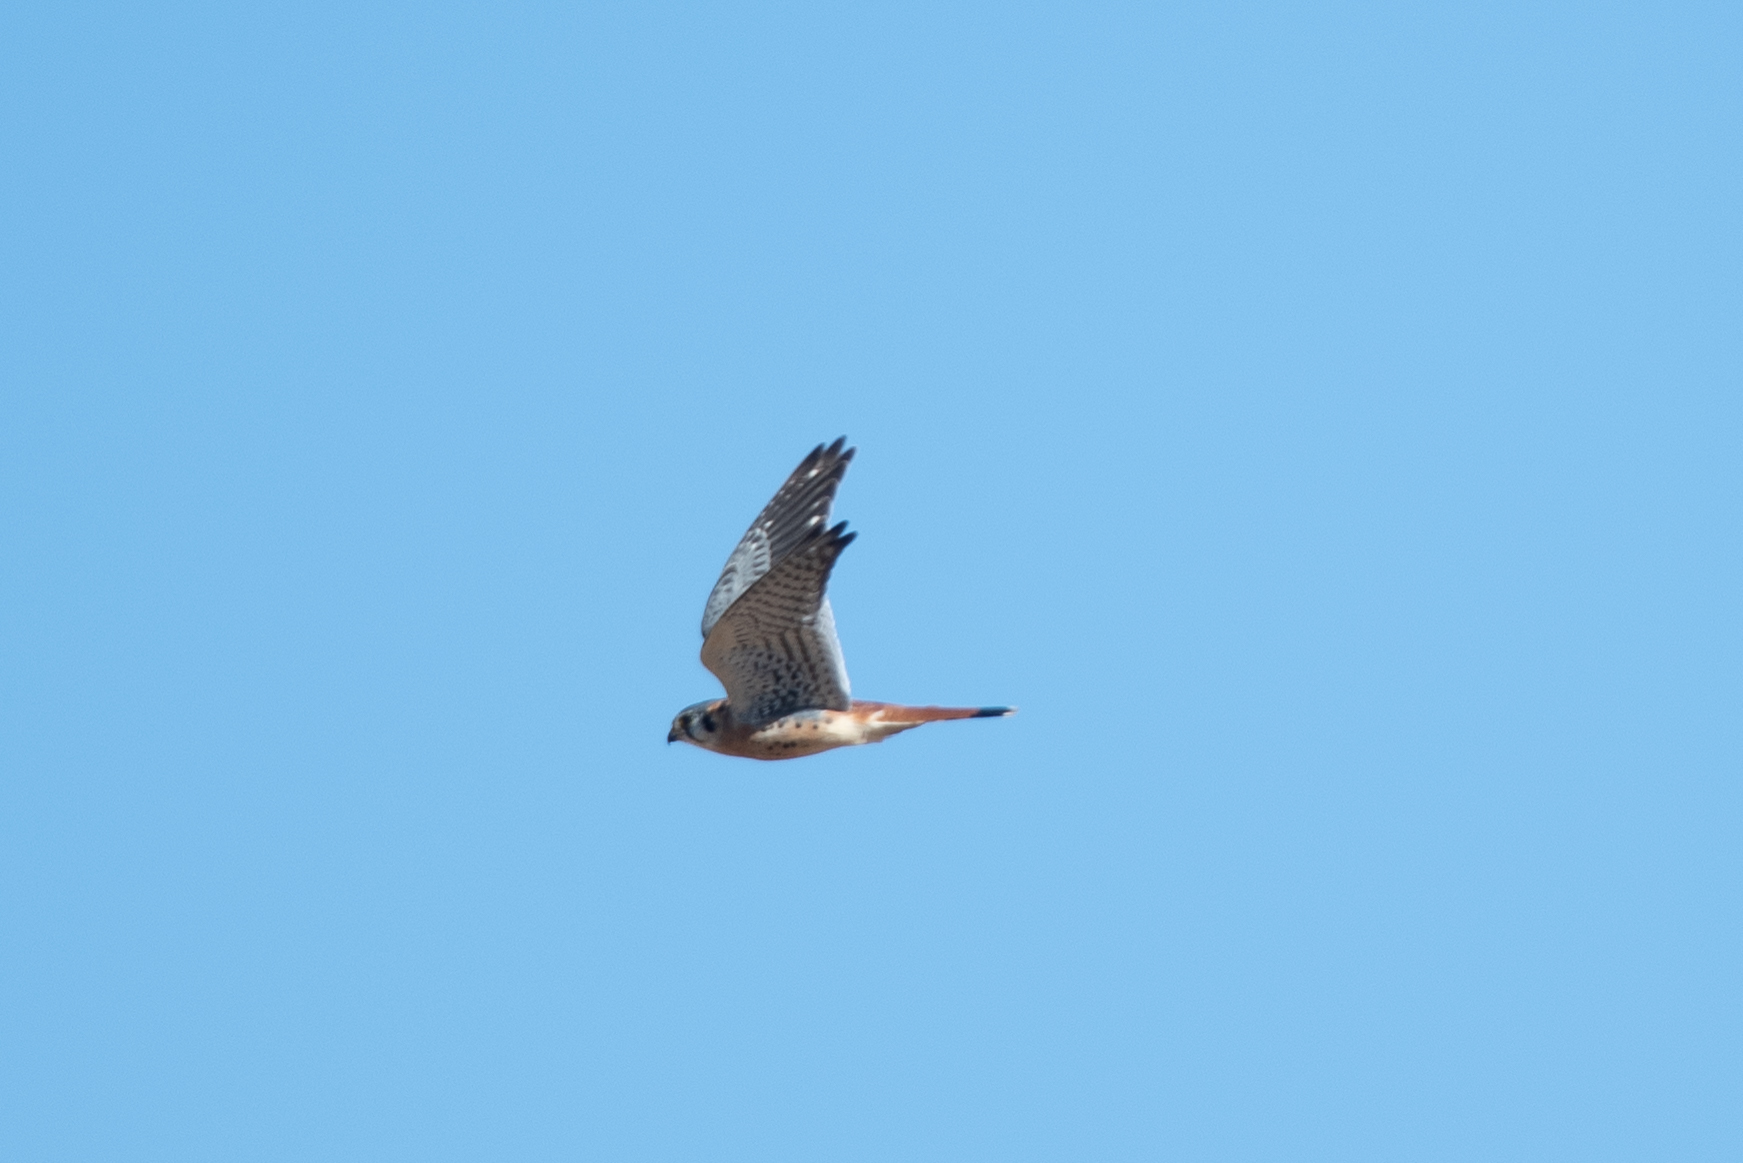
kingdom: Animalia
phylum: Chordata
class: Aves
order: Falconiformes
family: Falconidae
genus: Falco
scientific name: Falco sparverius
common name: American kestrel
